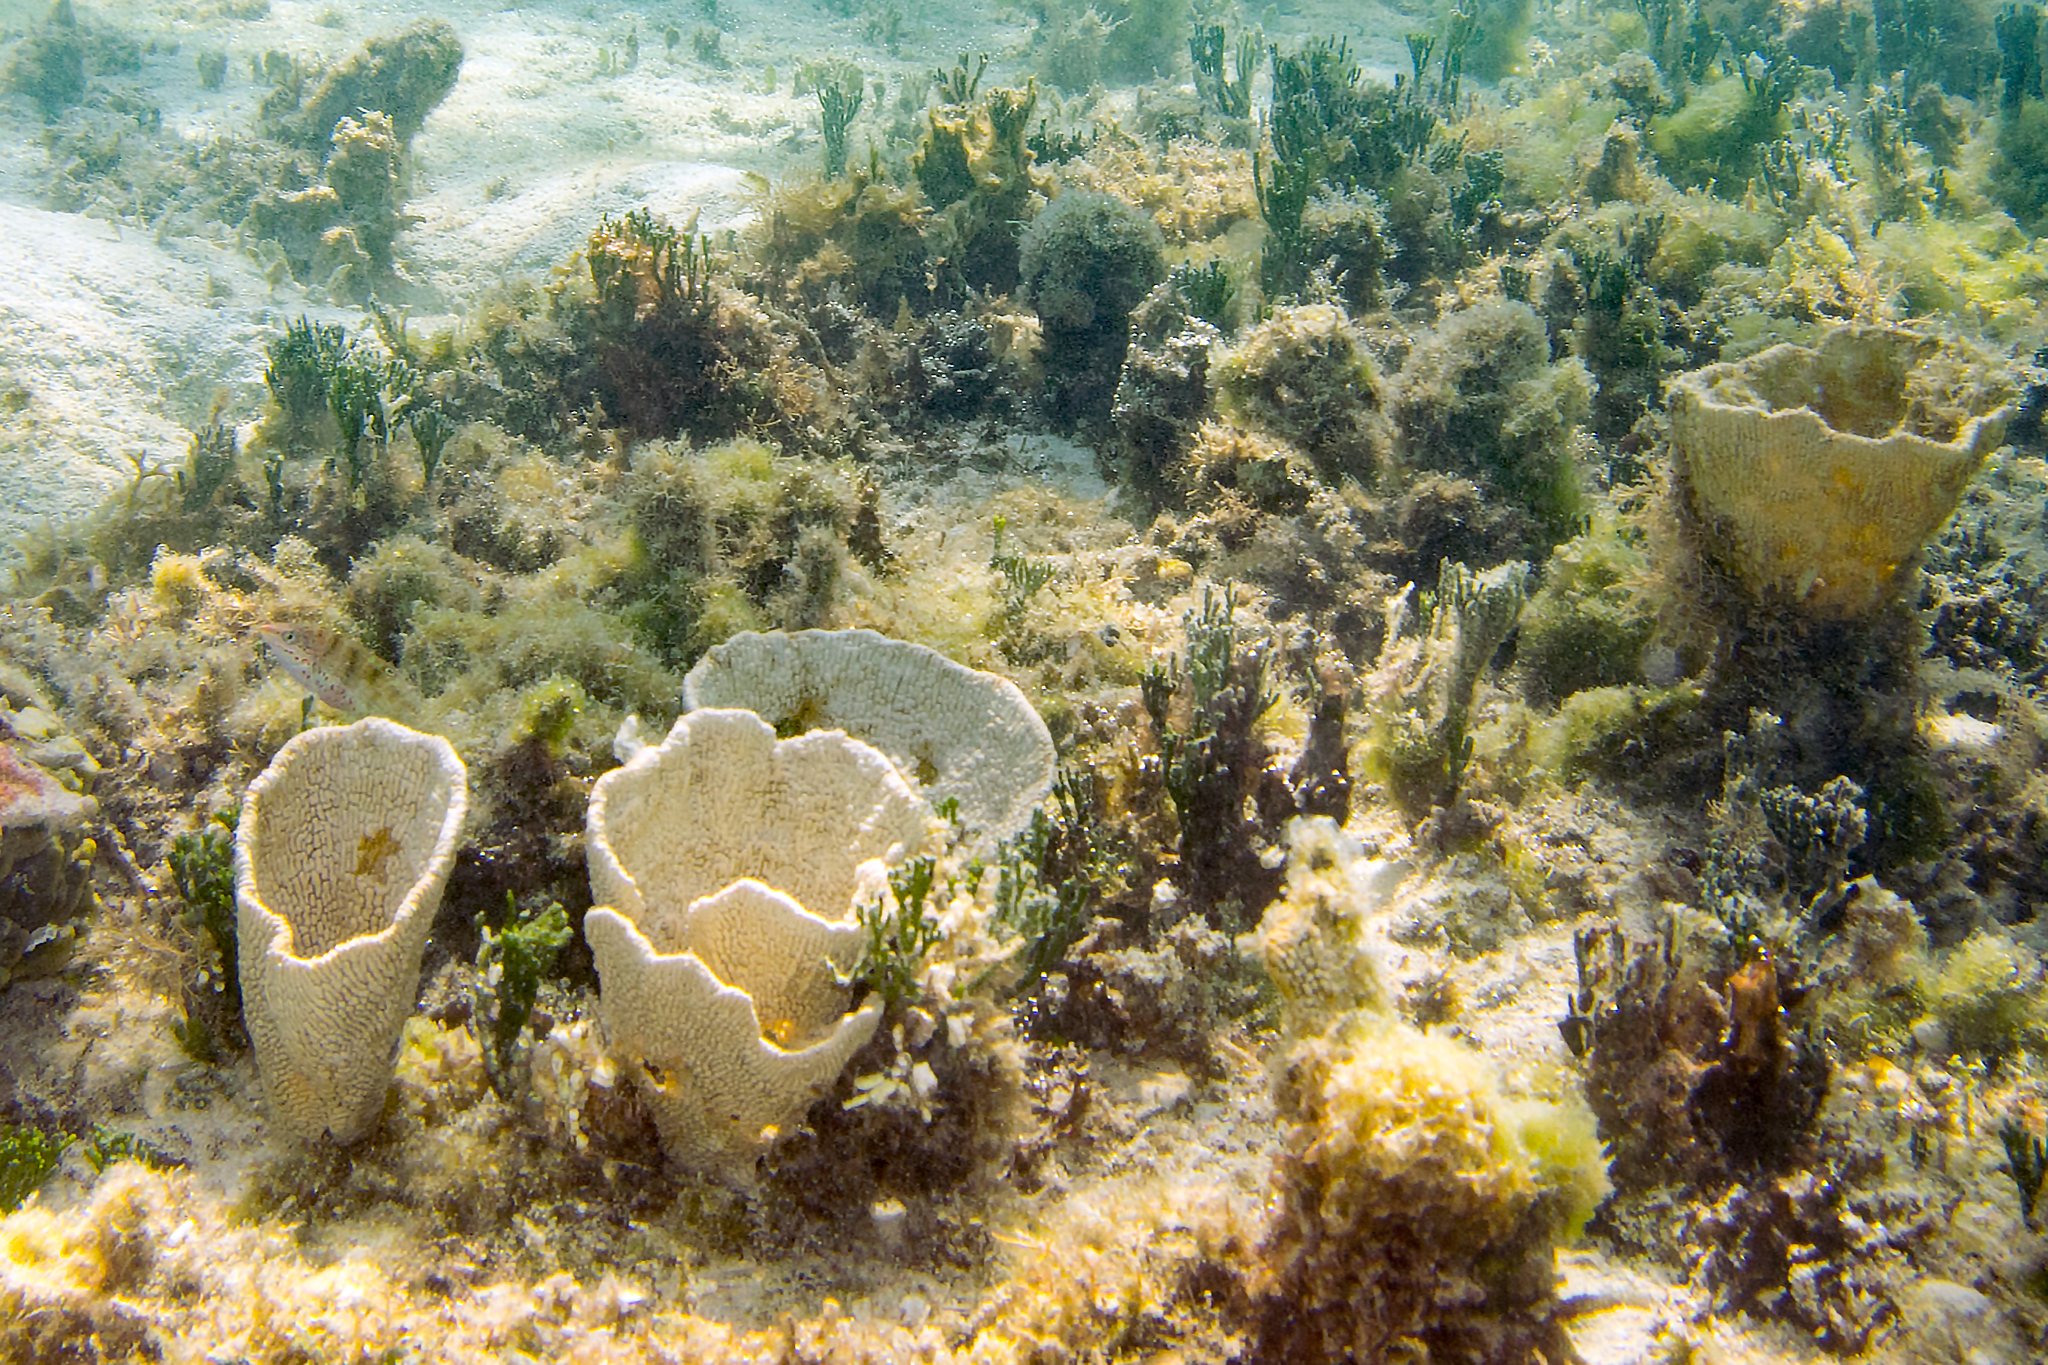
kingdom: Animalia
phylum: Porifera
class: Demospongiae
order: Dictyoceratida
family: Thorectidae
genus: Phyllospongia
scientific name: Phyllospongia foliascens
